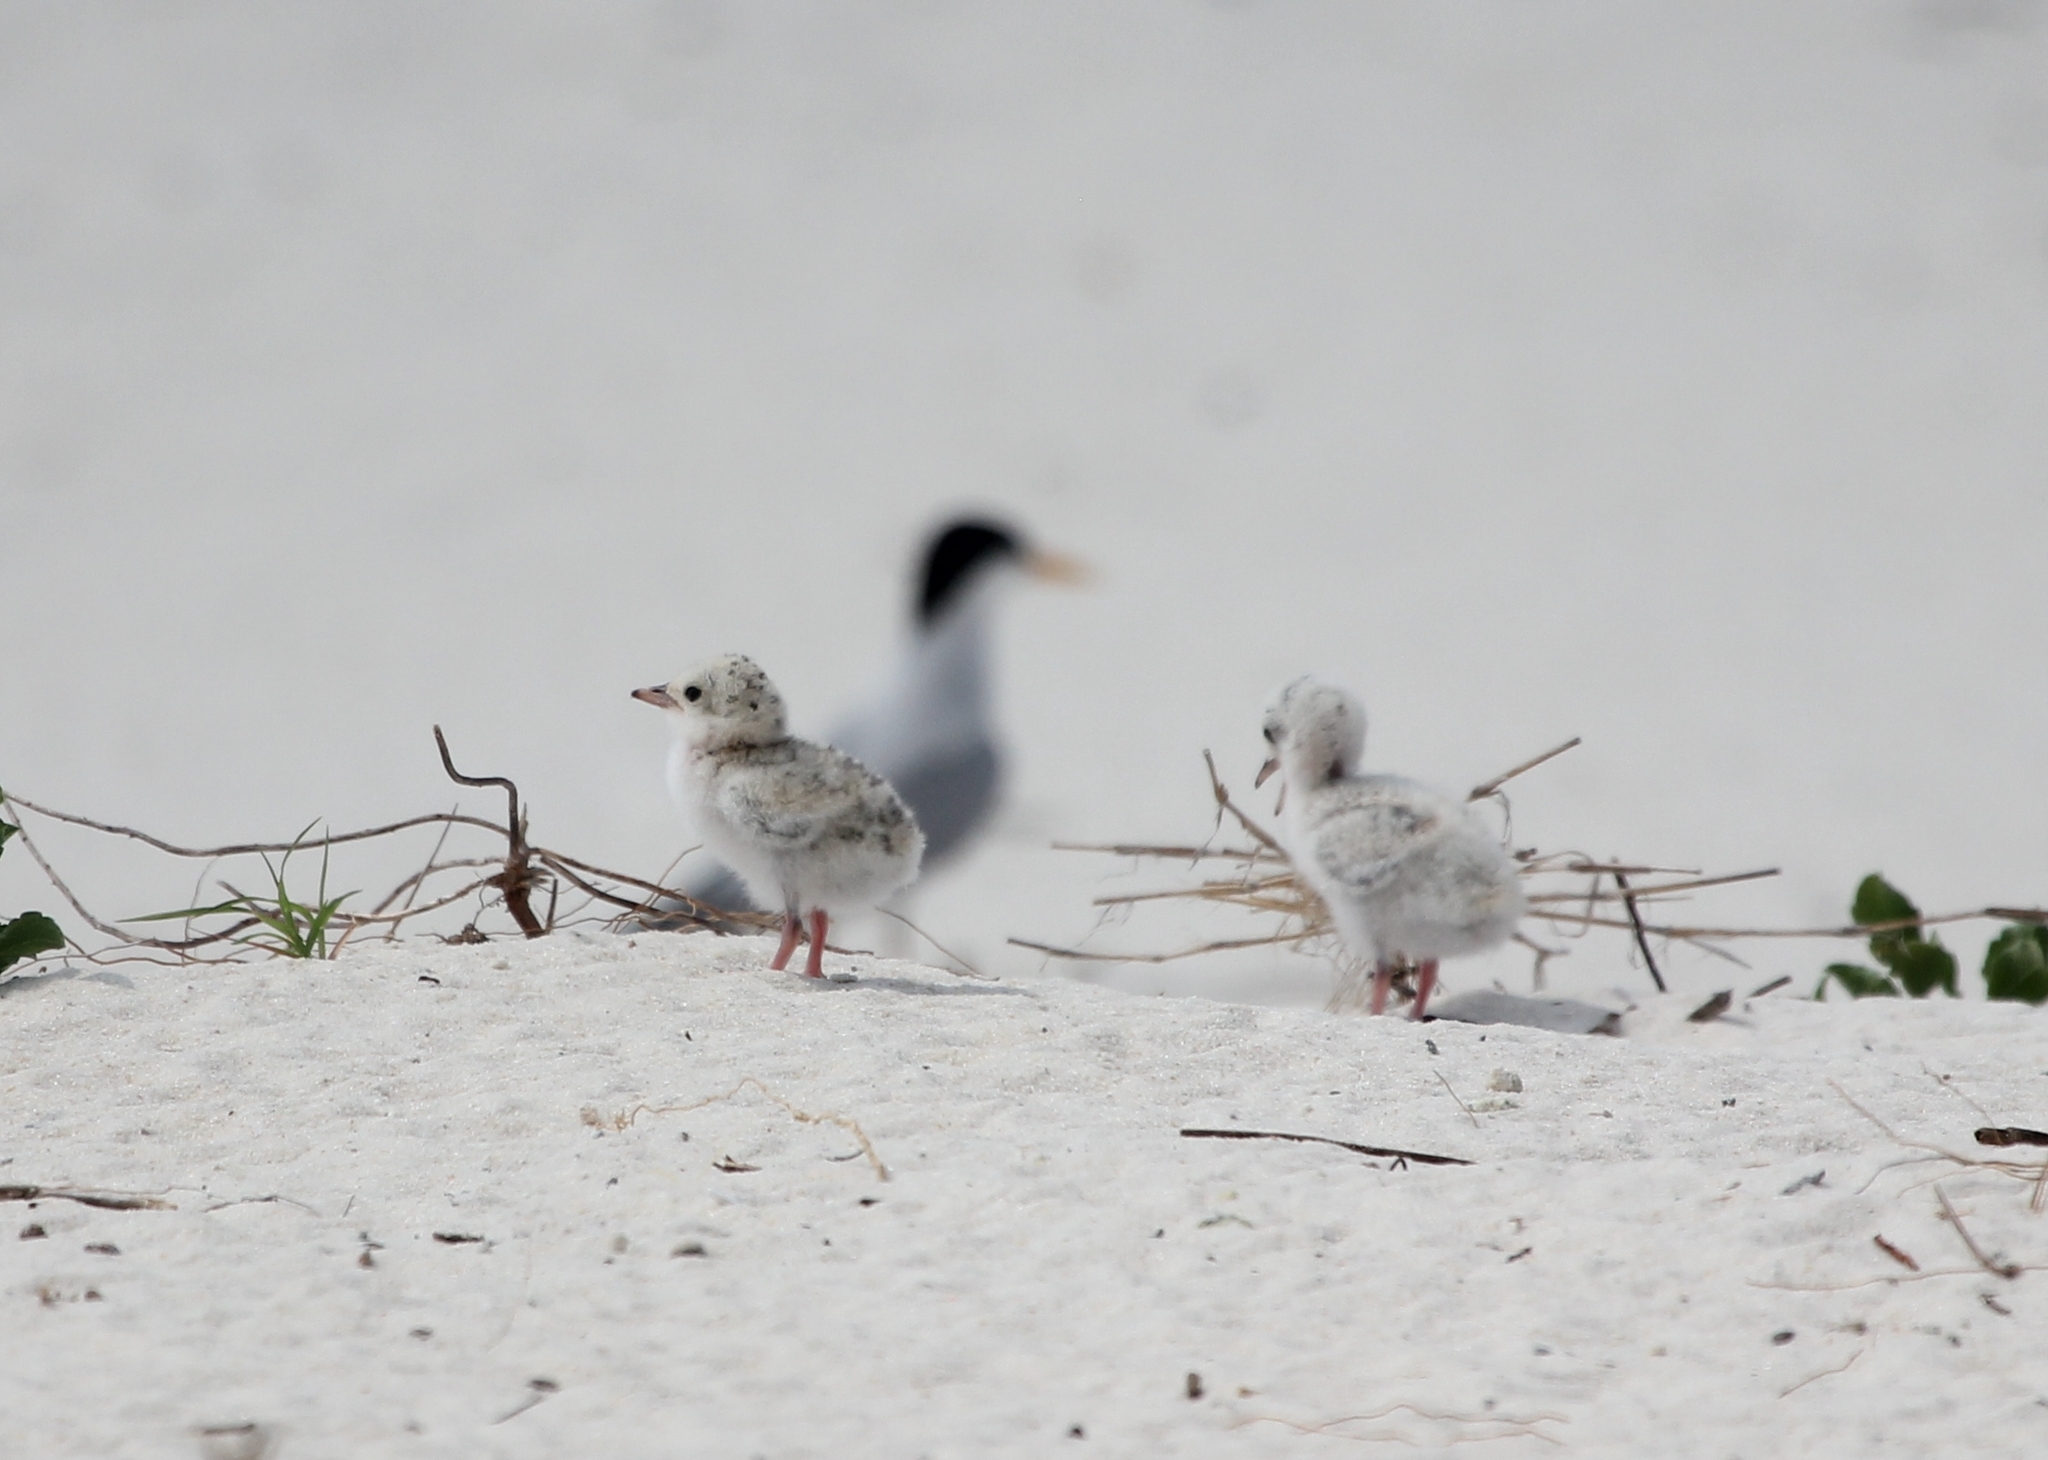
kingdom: Animalia
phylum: Chordata
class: Aves
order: Charadriiformes
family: Laridae
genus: Sternula
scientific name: Sternula antillarum
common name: Least tern
